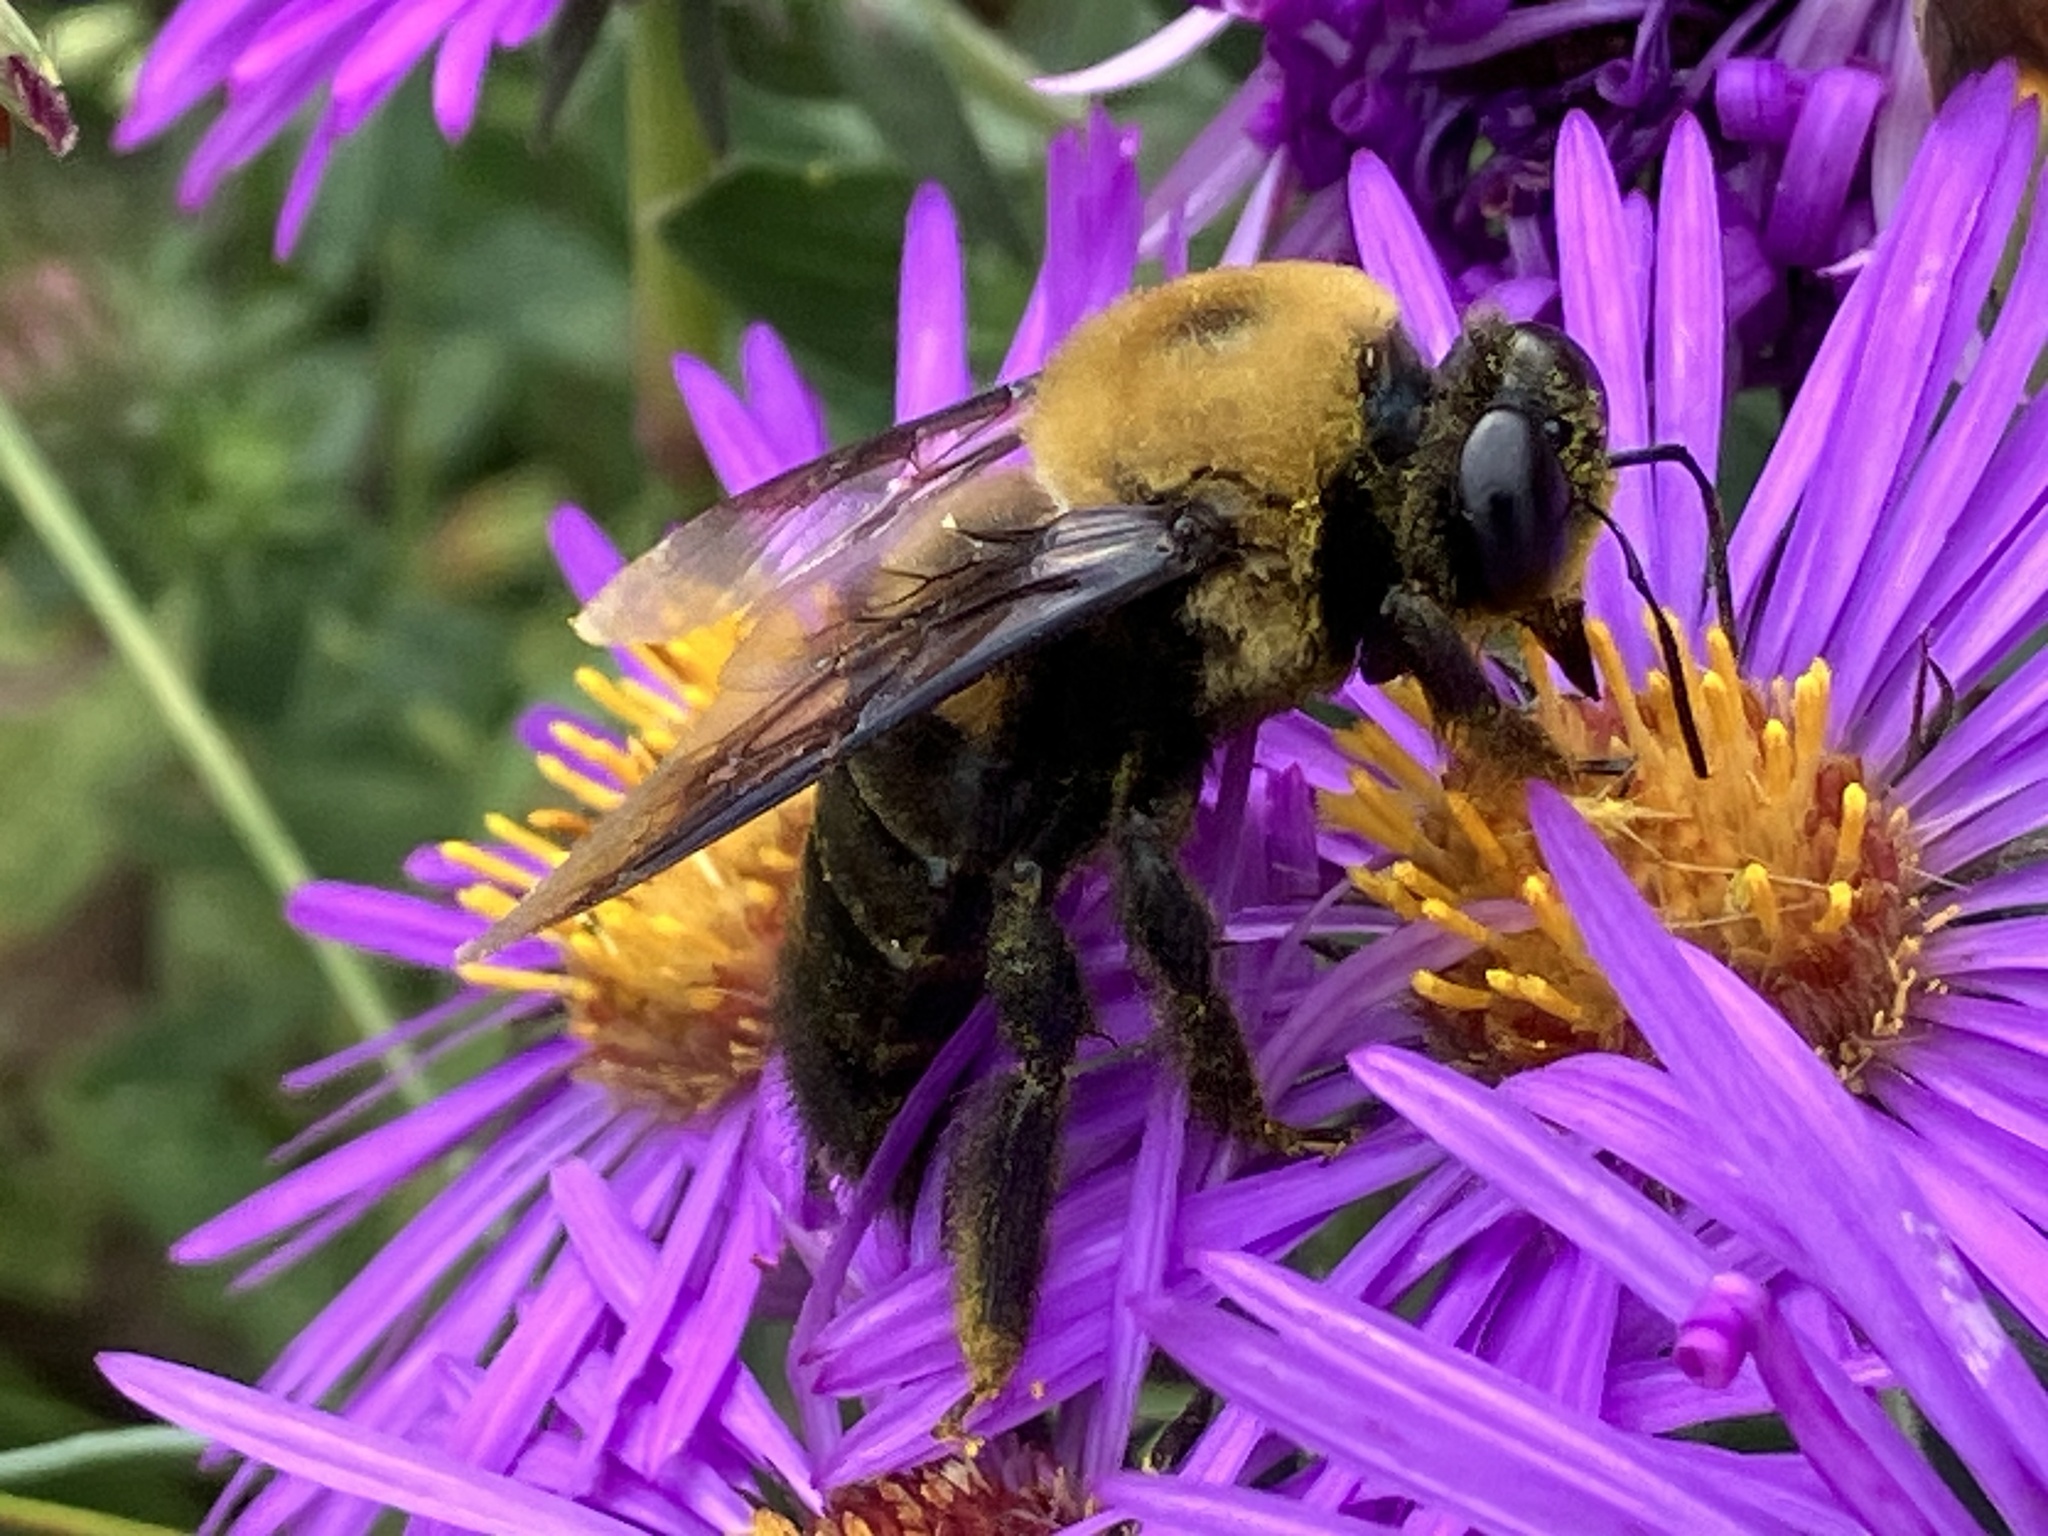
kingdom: Animalia
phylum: Arthropoda
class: Insecta
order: Hymenoptera
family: Apidae
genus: Xylocopa
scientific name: Xylocopa virginica
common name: Carpenter bee
